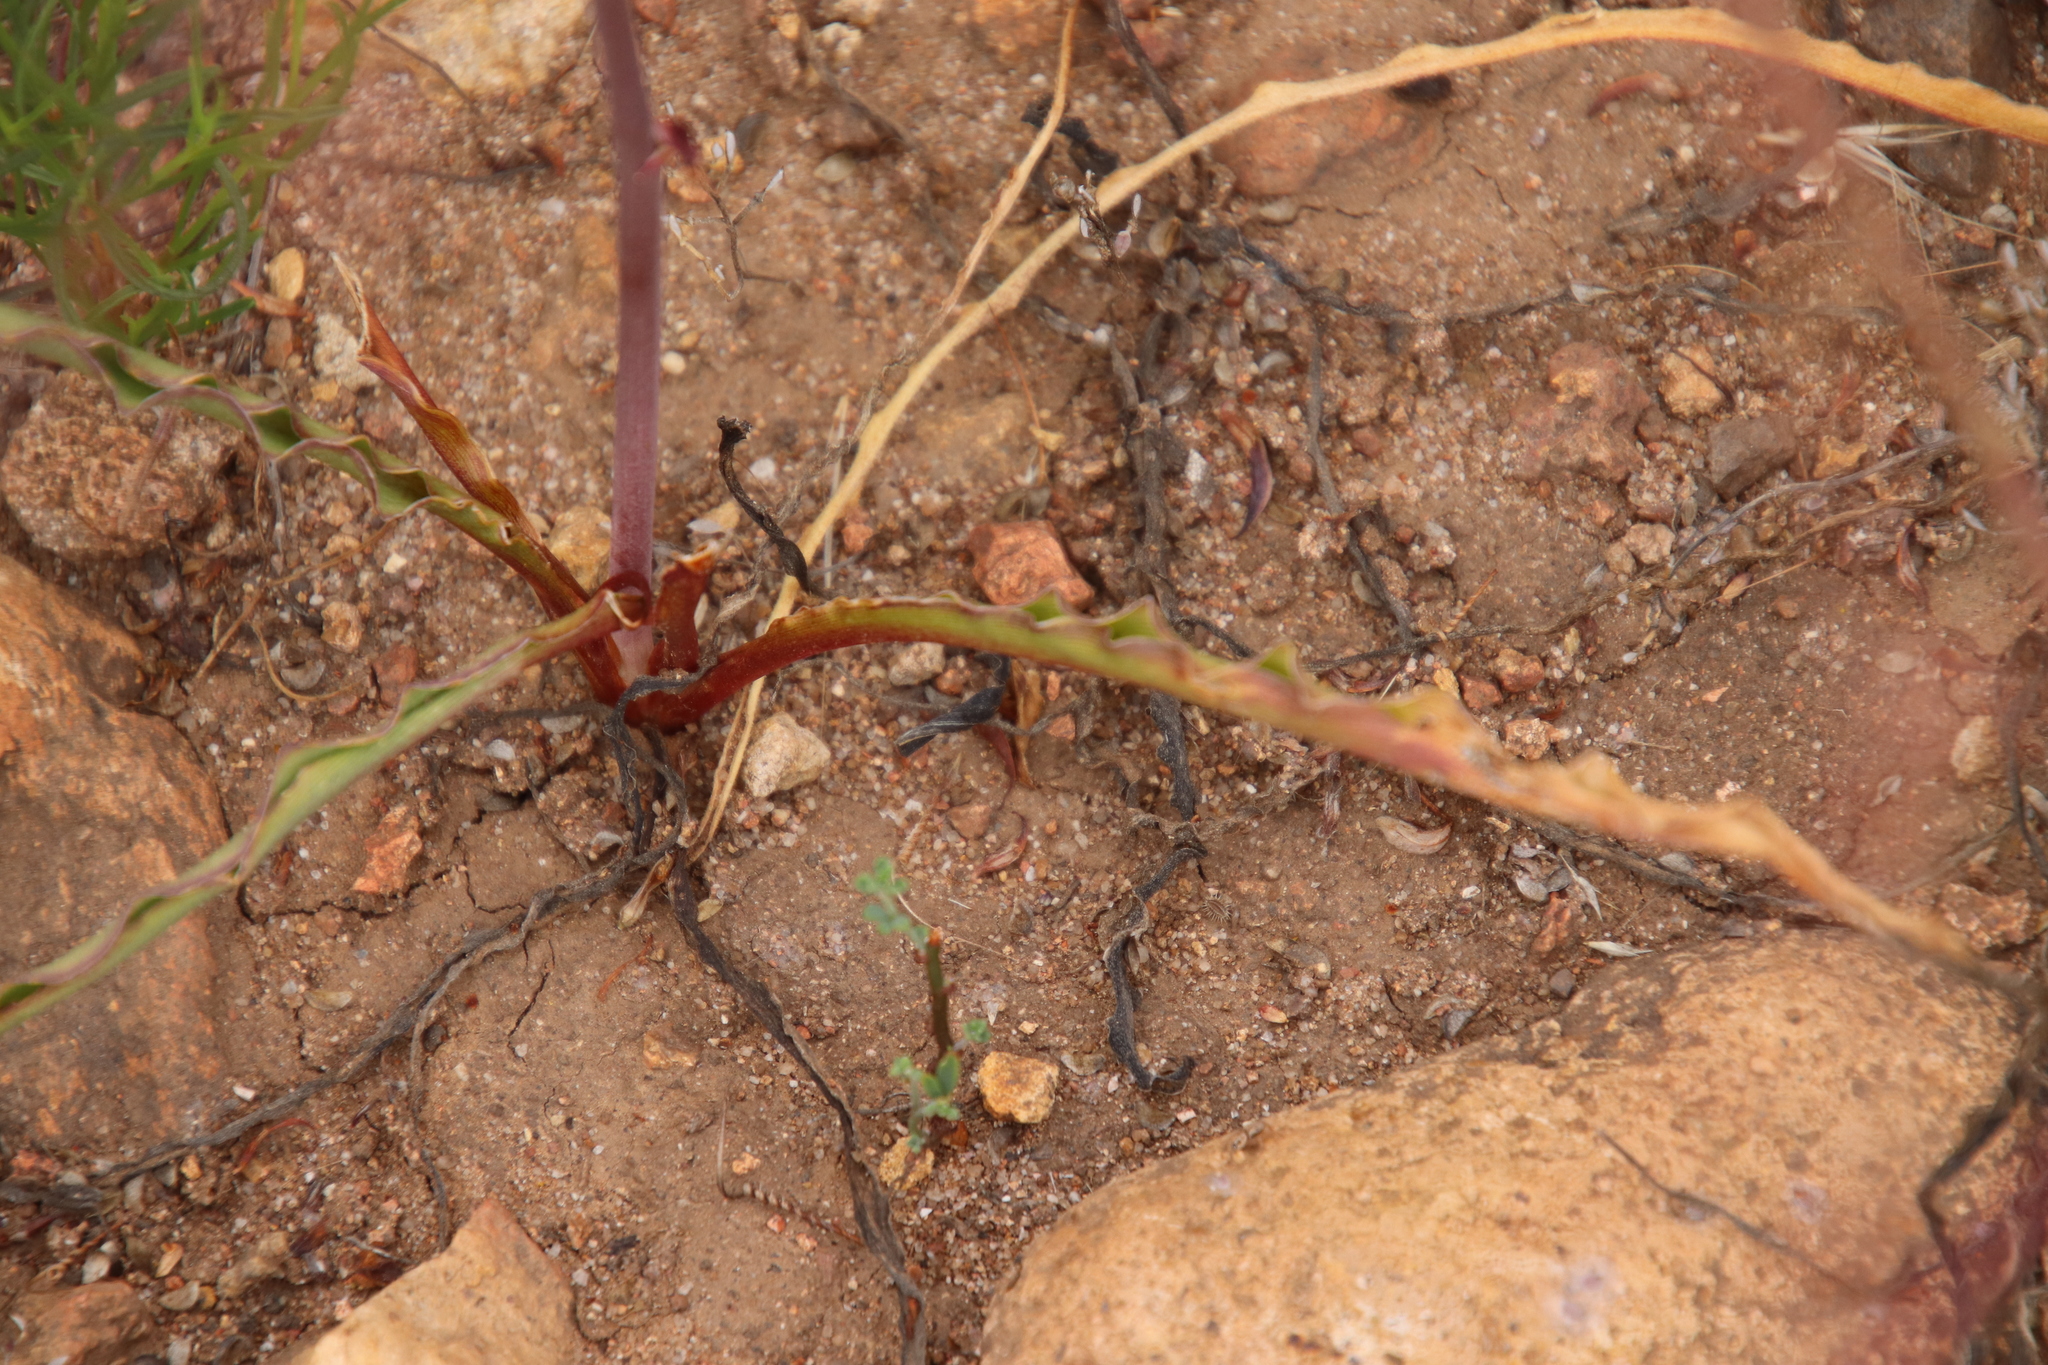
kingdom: Plantae
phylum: Tracheophyta
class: Liliopsida
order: Asparagales
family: Asparagaceae
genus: Hooveria
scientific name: Hooveria parviflora
